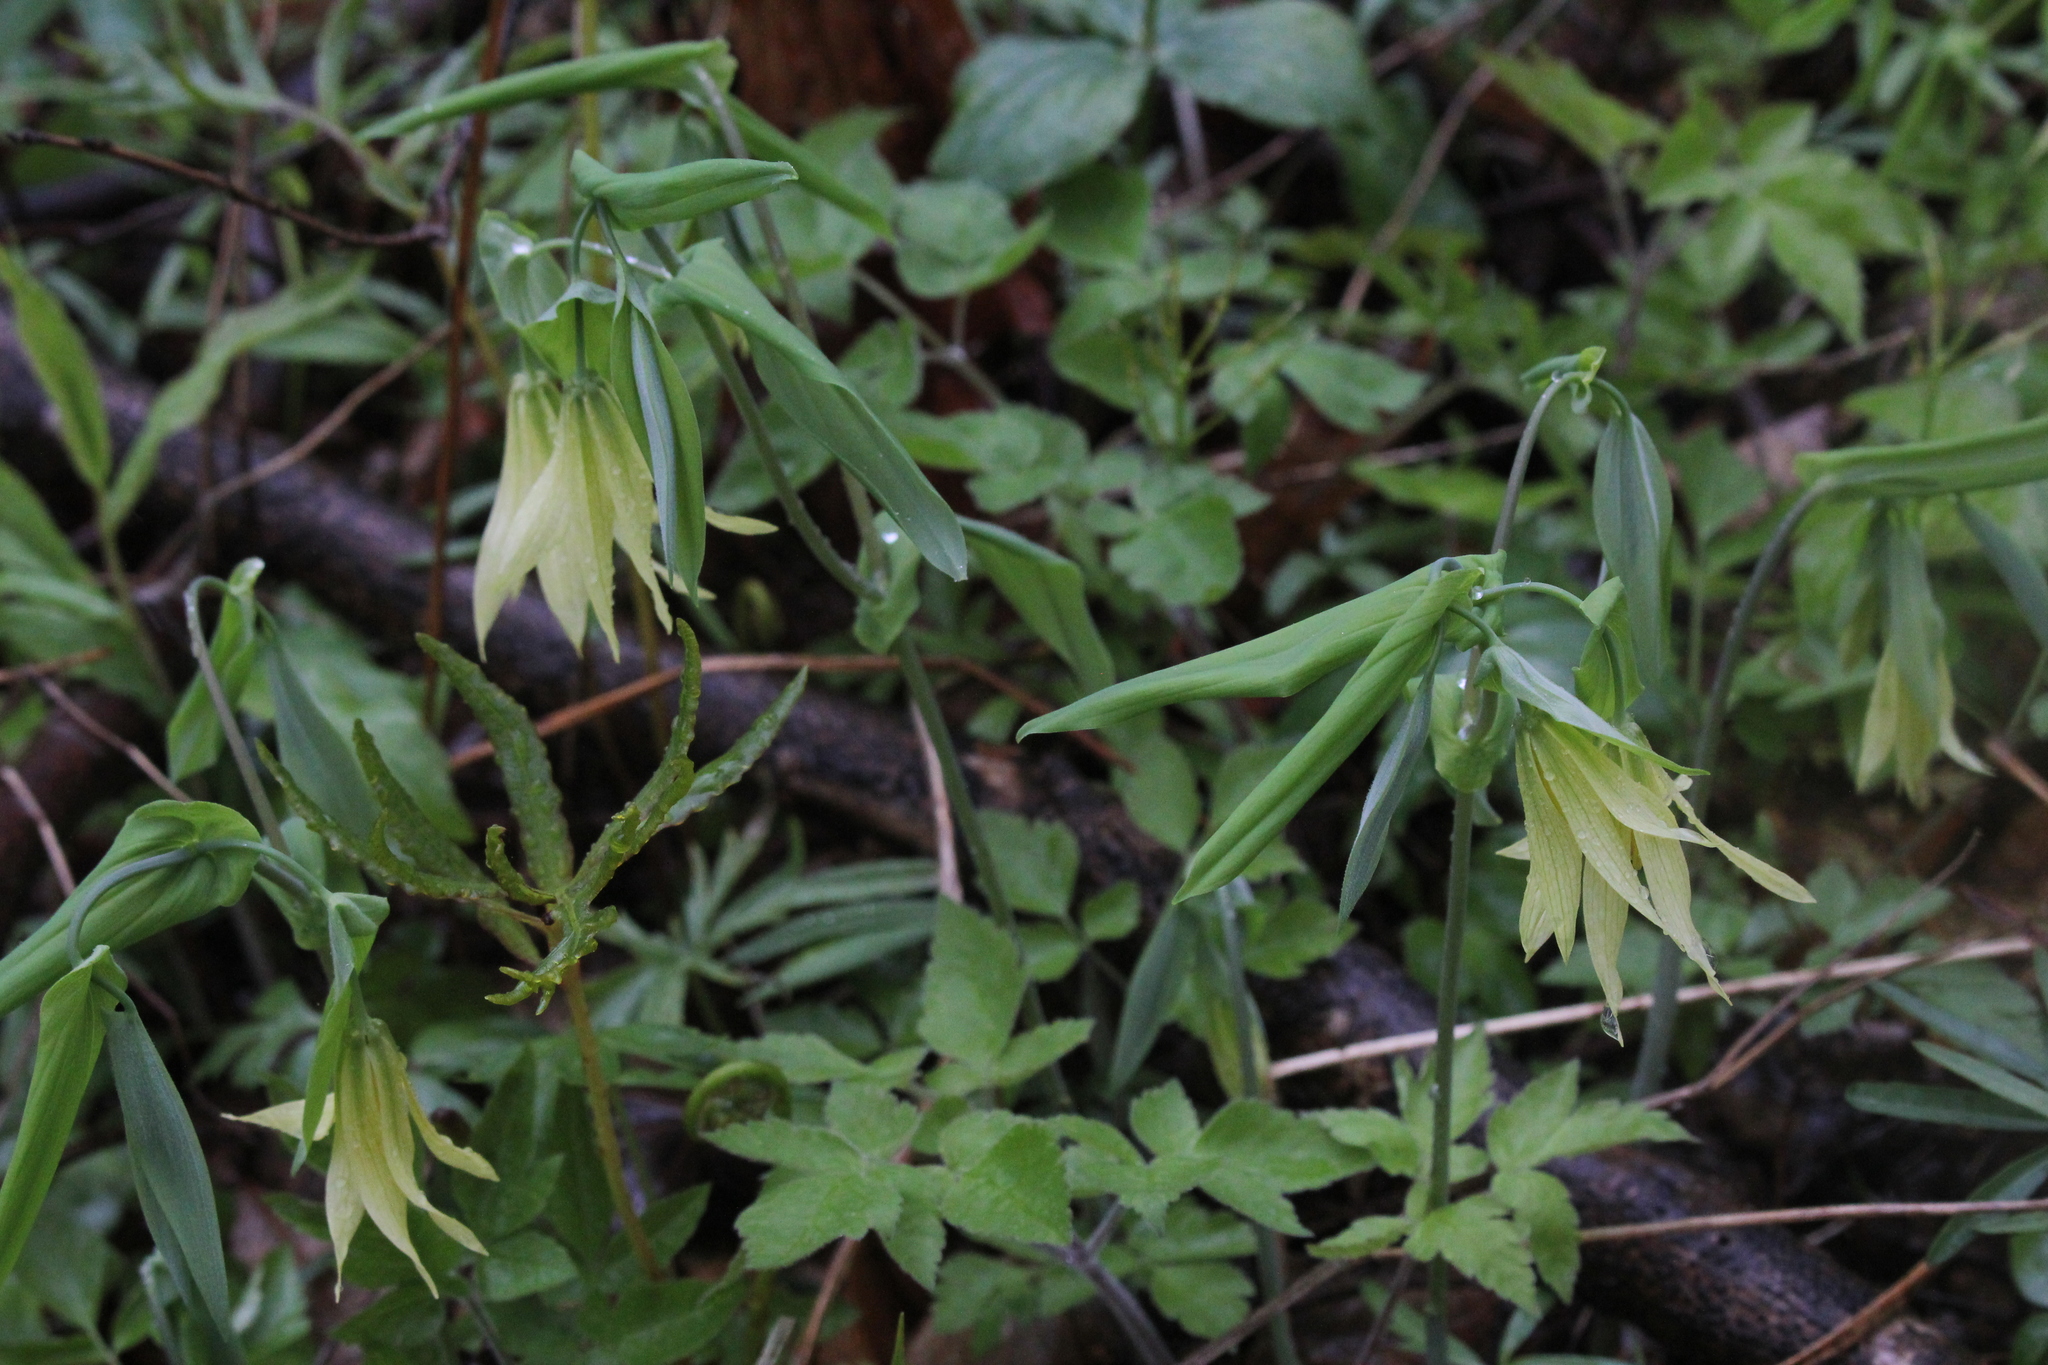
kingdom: Plantae
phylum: Tracheophyta
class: Liliopsida
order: Liliales
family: Colchicaceae
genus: Uvularia
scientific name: Uvularia grandiflora
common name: Bellwort
